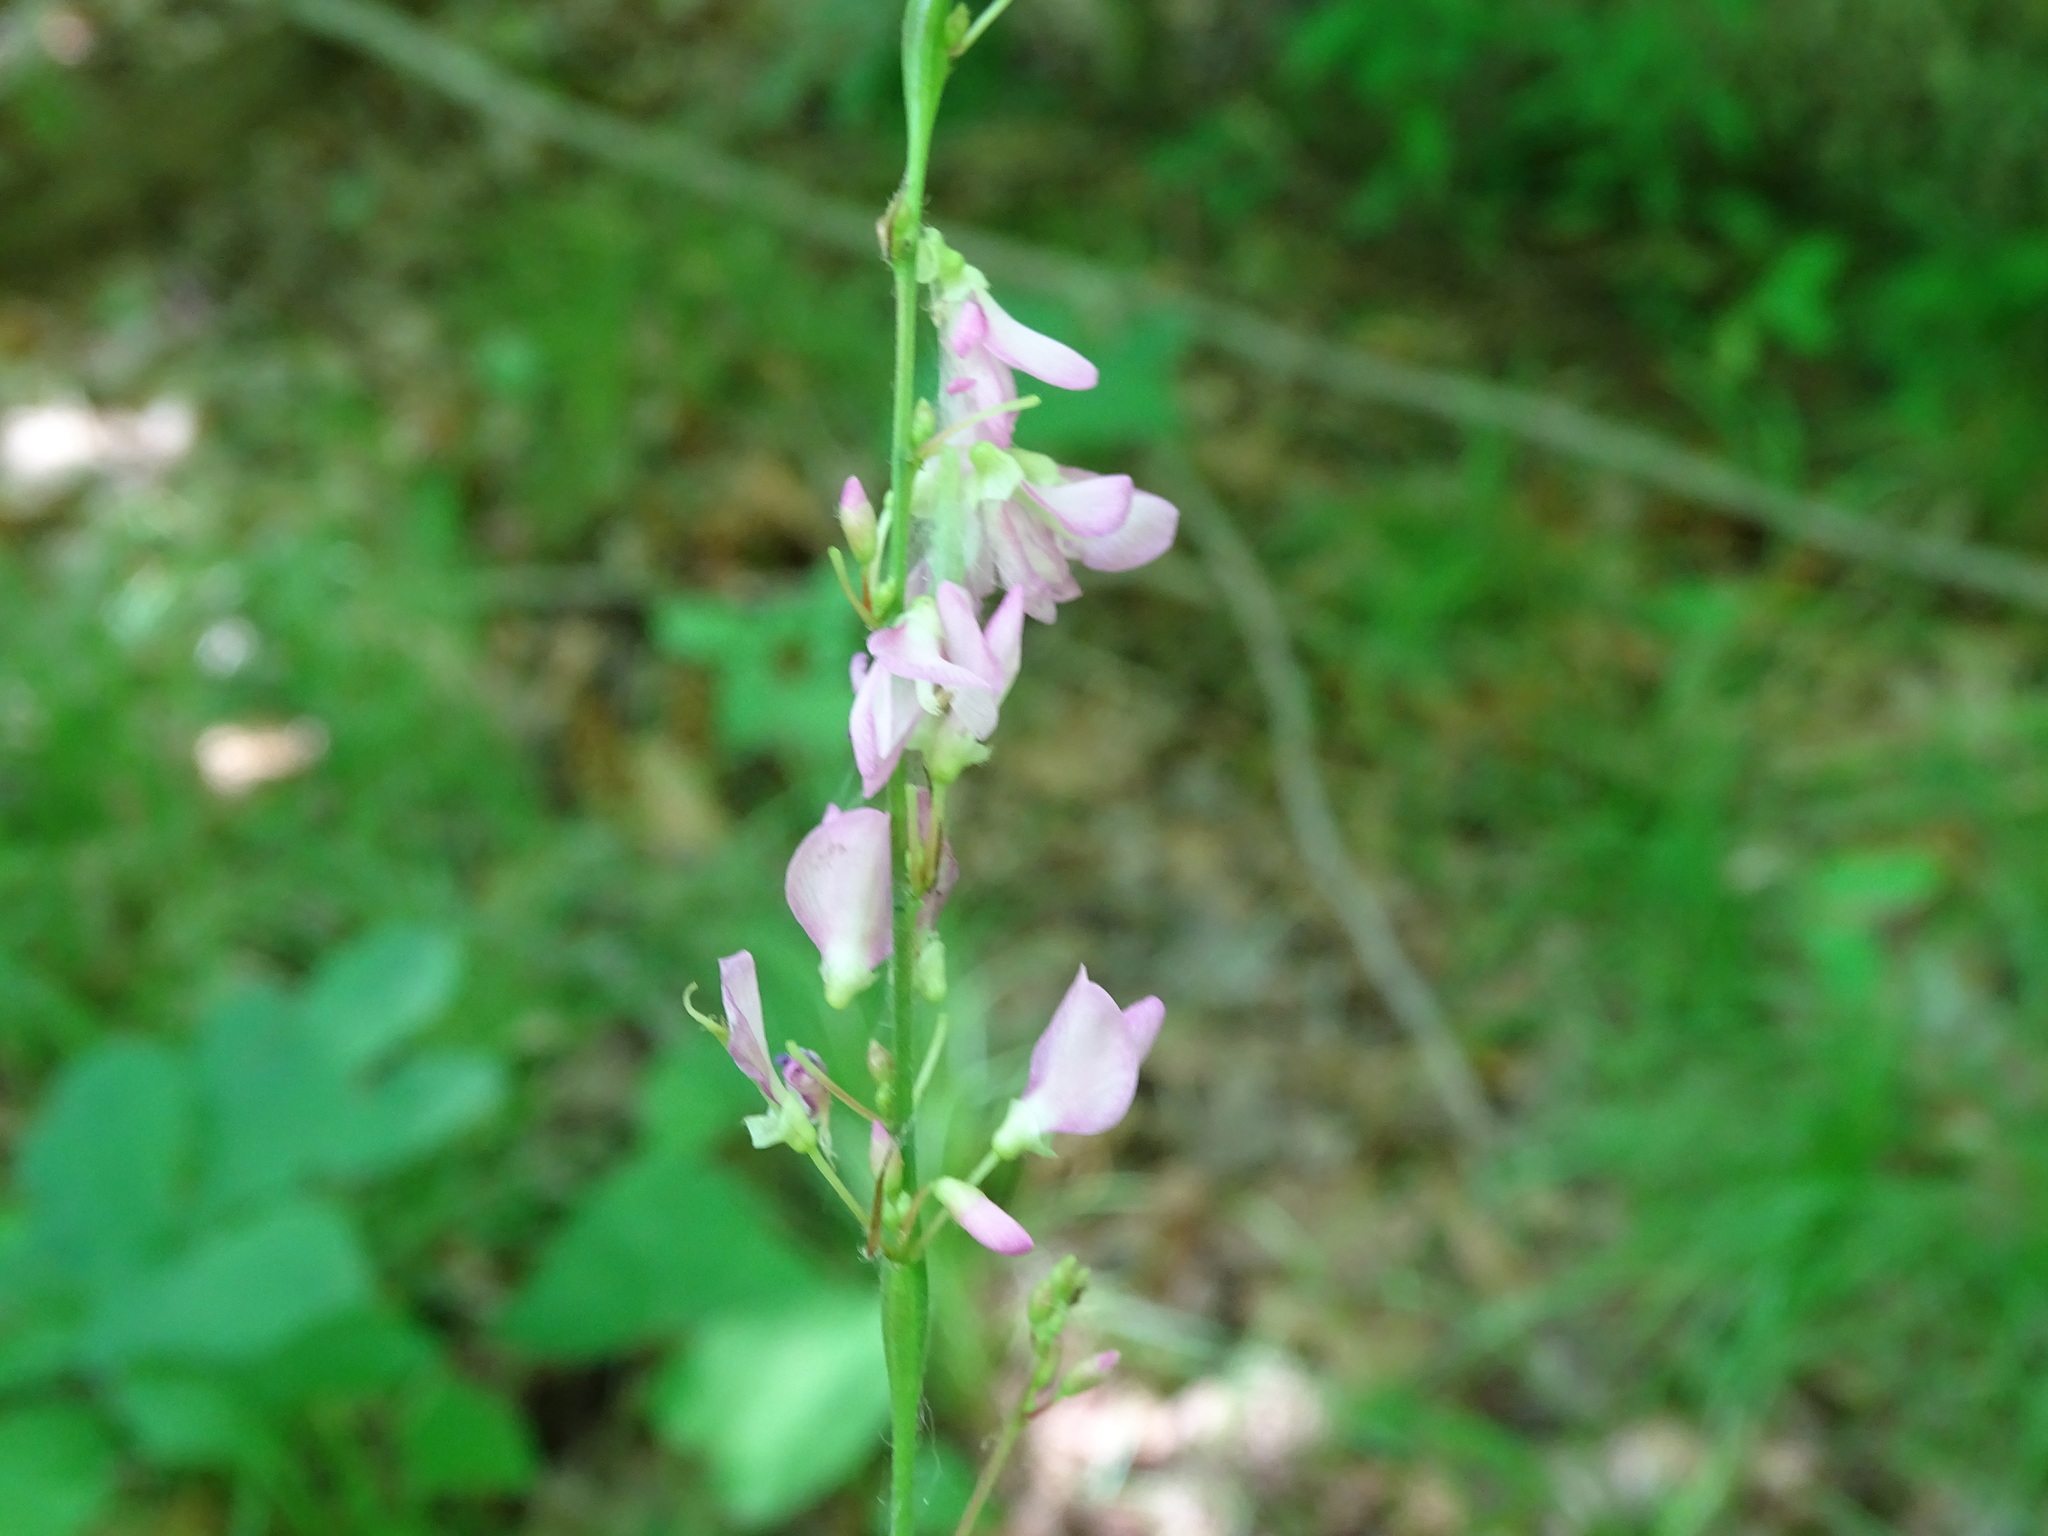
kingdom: Plantae
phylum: Tracheophyta
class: Magnoliopsida
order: Fabales
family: Fabaceae
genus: Hylodesmum
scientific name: Hylodesmum glutinosum
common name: Clustered-leaved tick-trefoil
